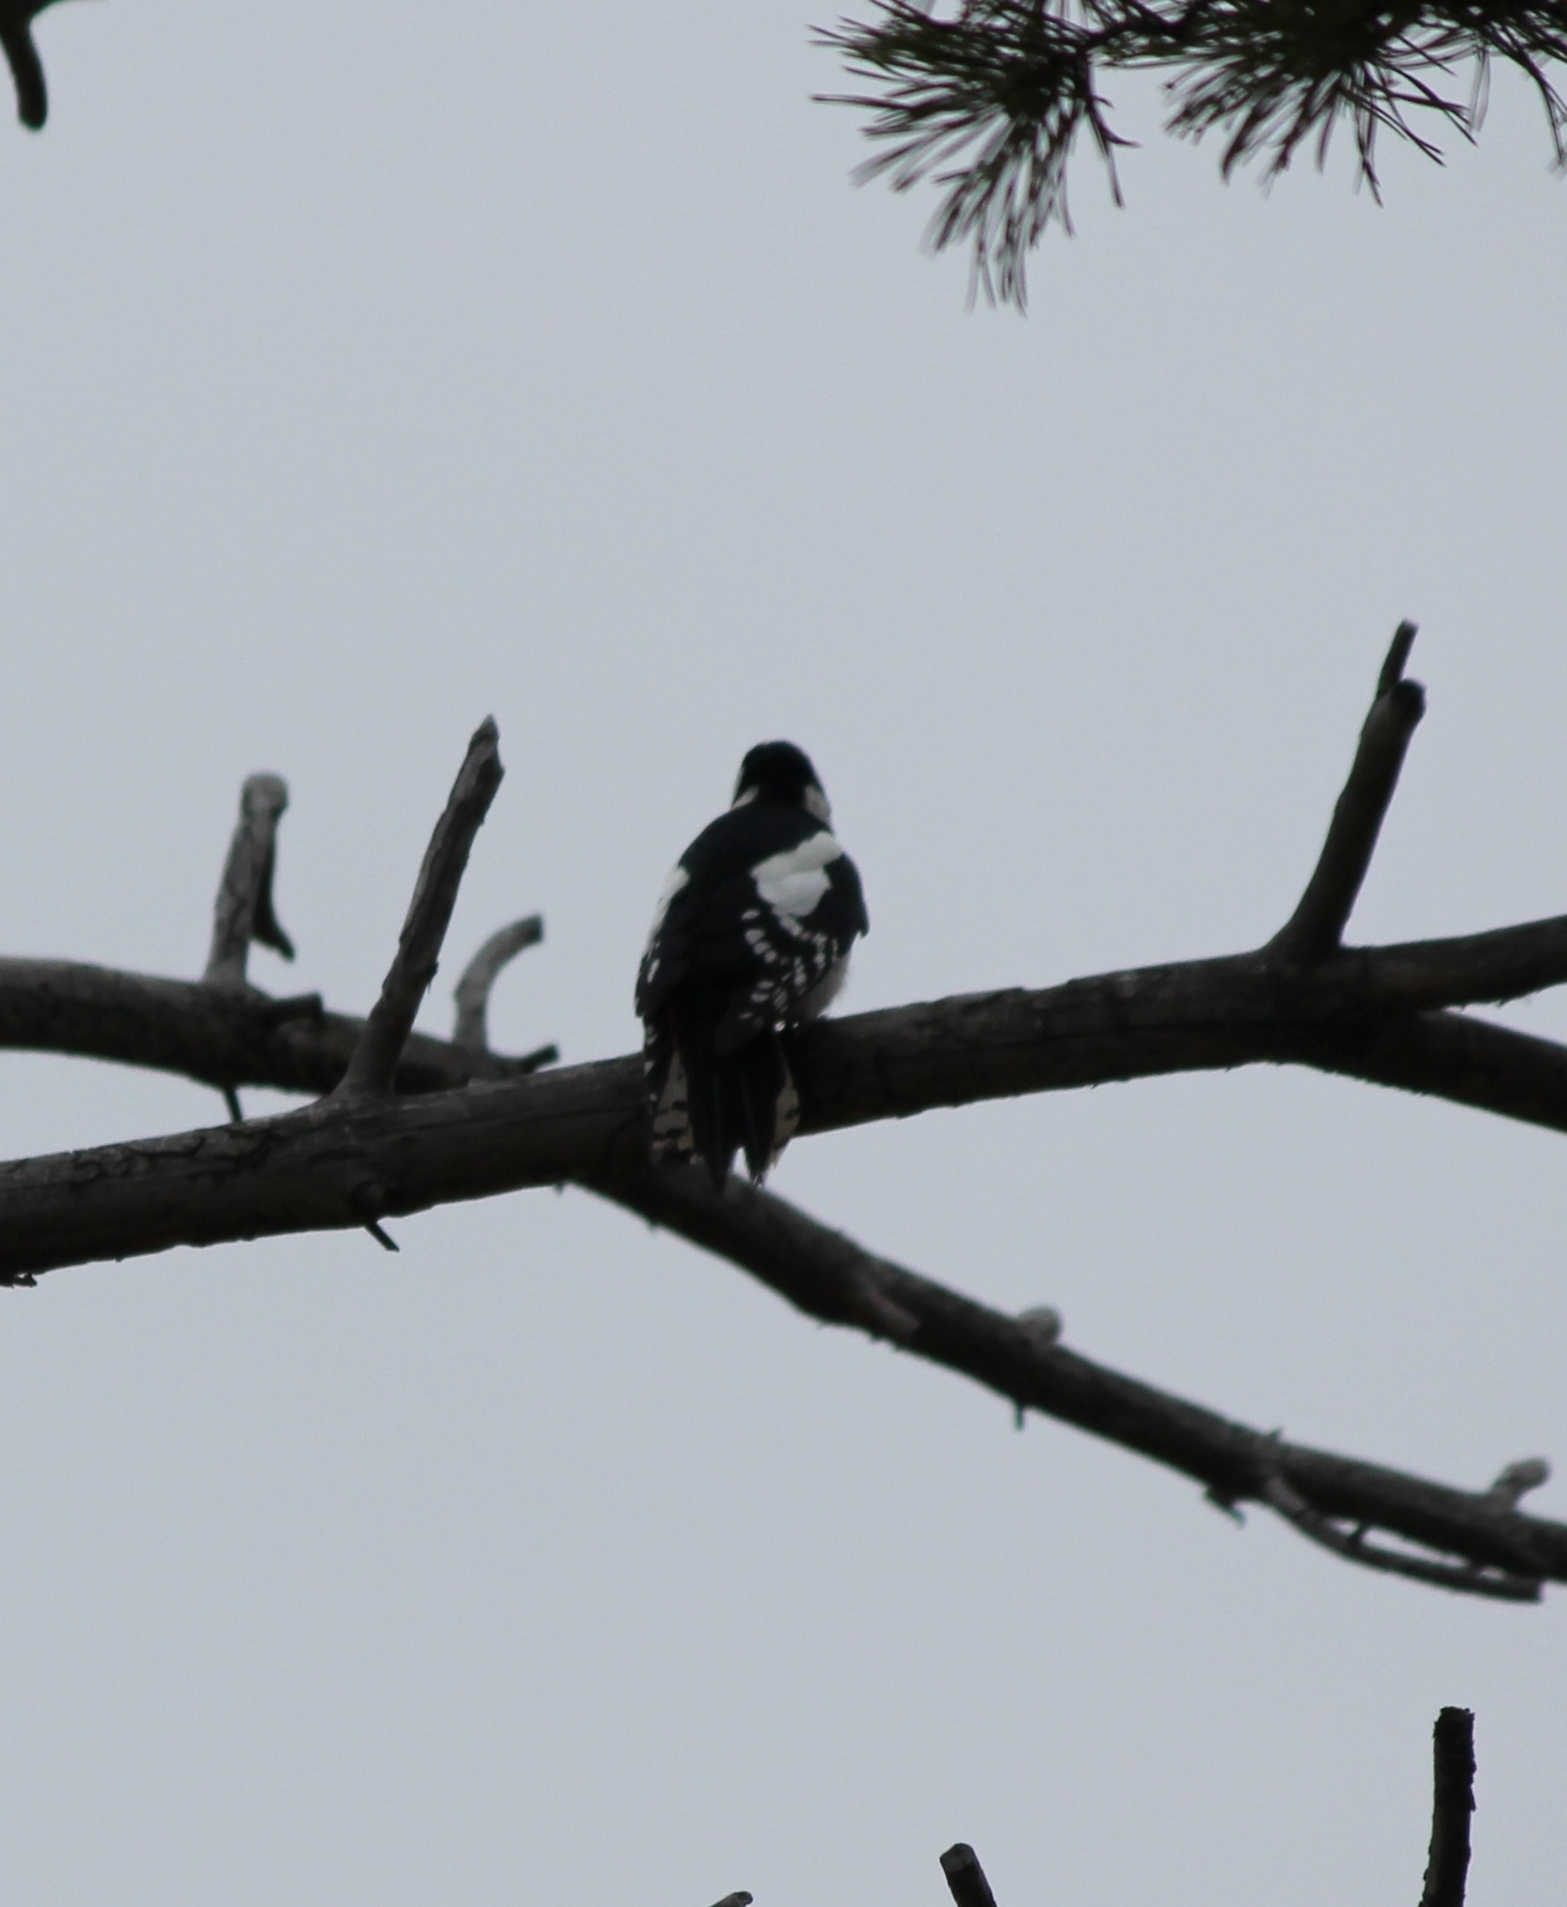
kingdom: Animalia
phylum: Chordata
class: Aves
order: Piciformes
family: Picidae
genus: Dendrocopos
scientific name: Dendrocopos major
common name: Great spotted woodpecker
